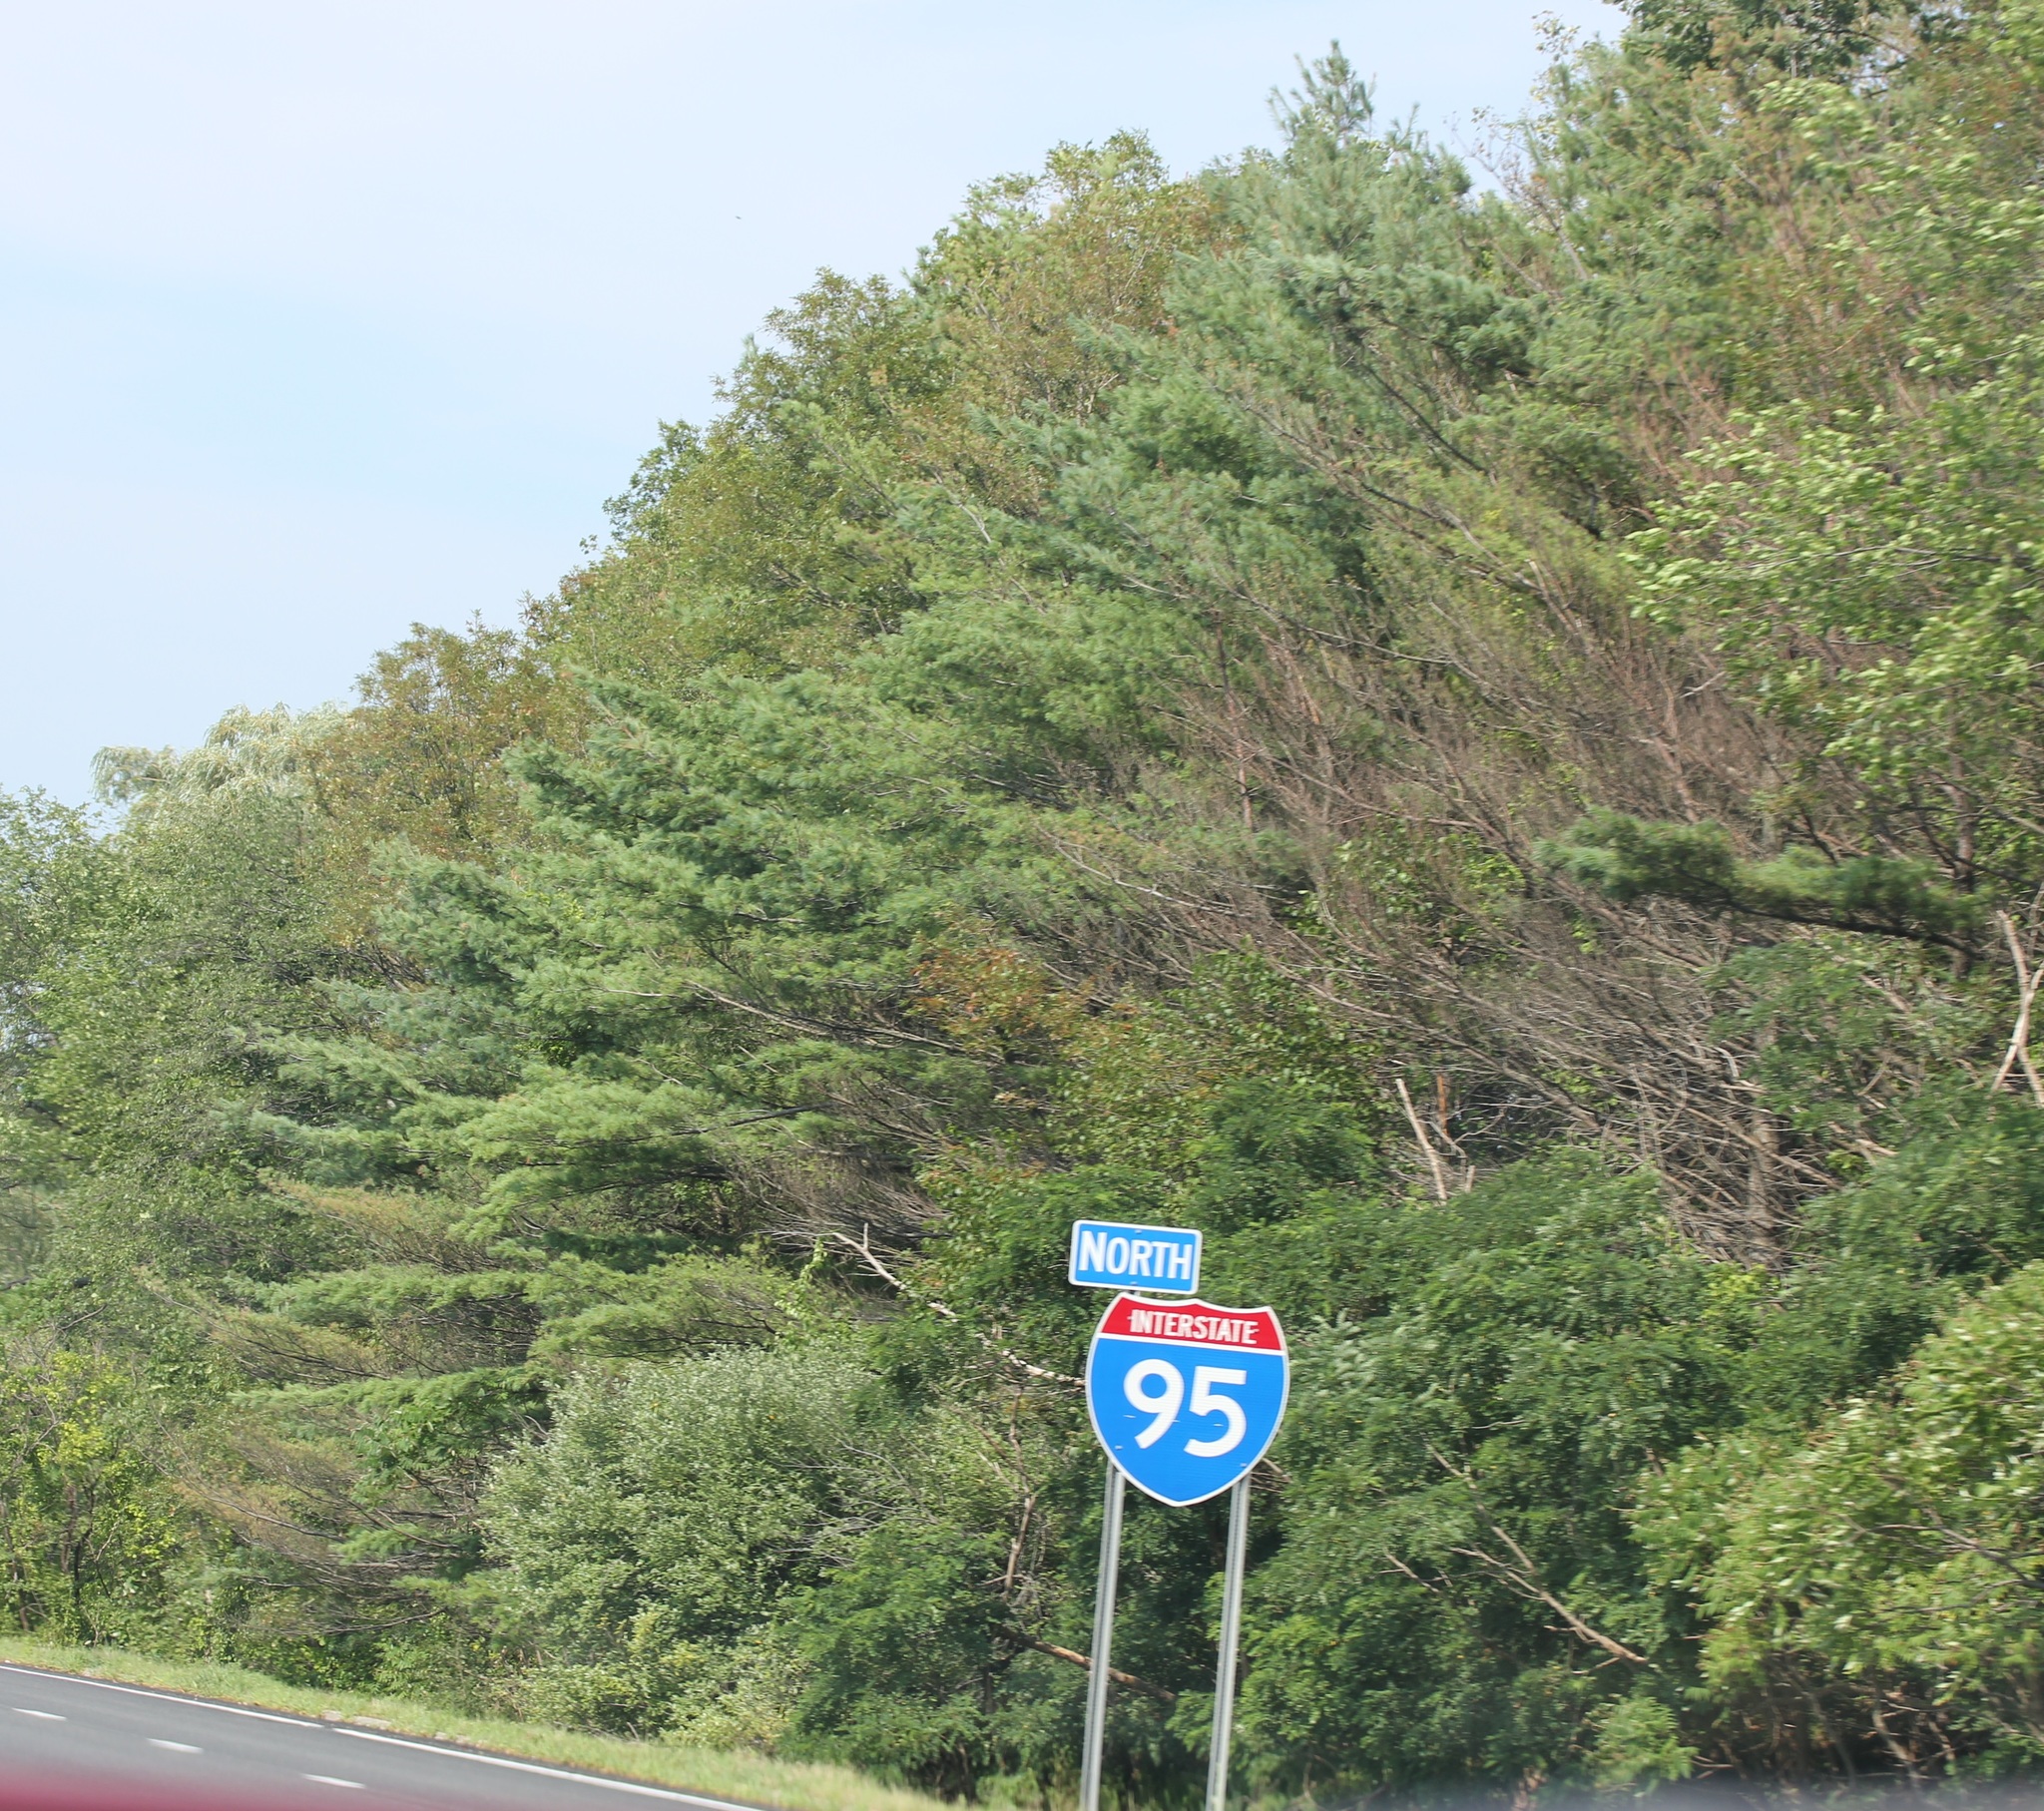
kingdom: Plantae
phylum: Tracheophyta
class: Pinopsida
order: Pinales
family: Pinaceae
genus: Pinus
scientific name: Pinus strobus
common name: Weymouth pine
